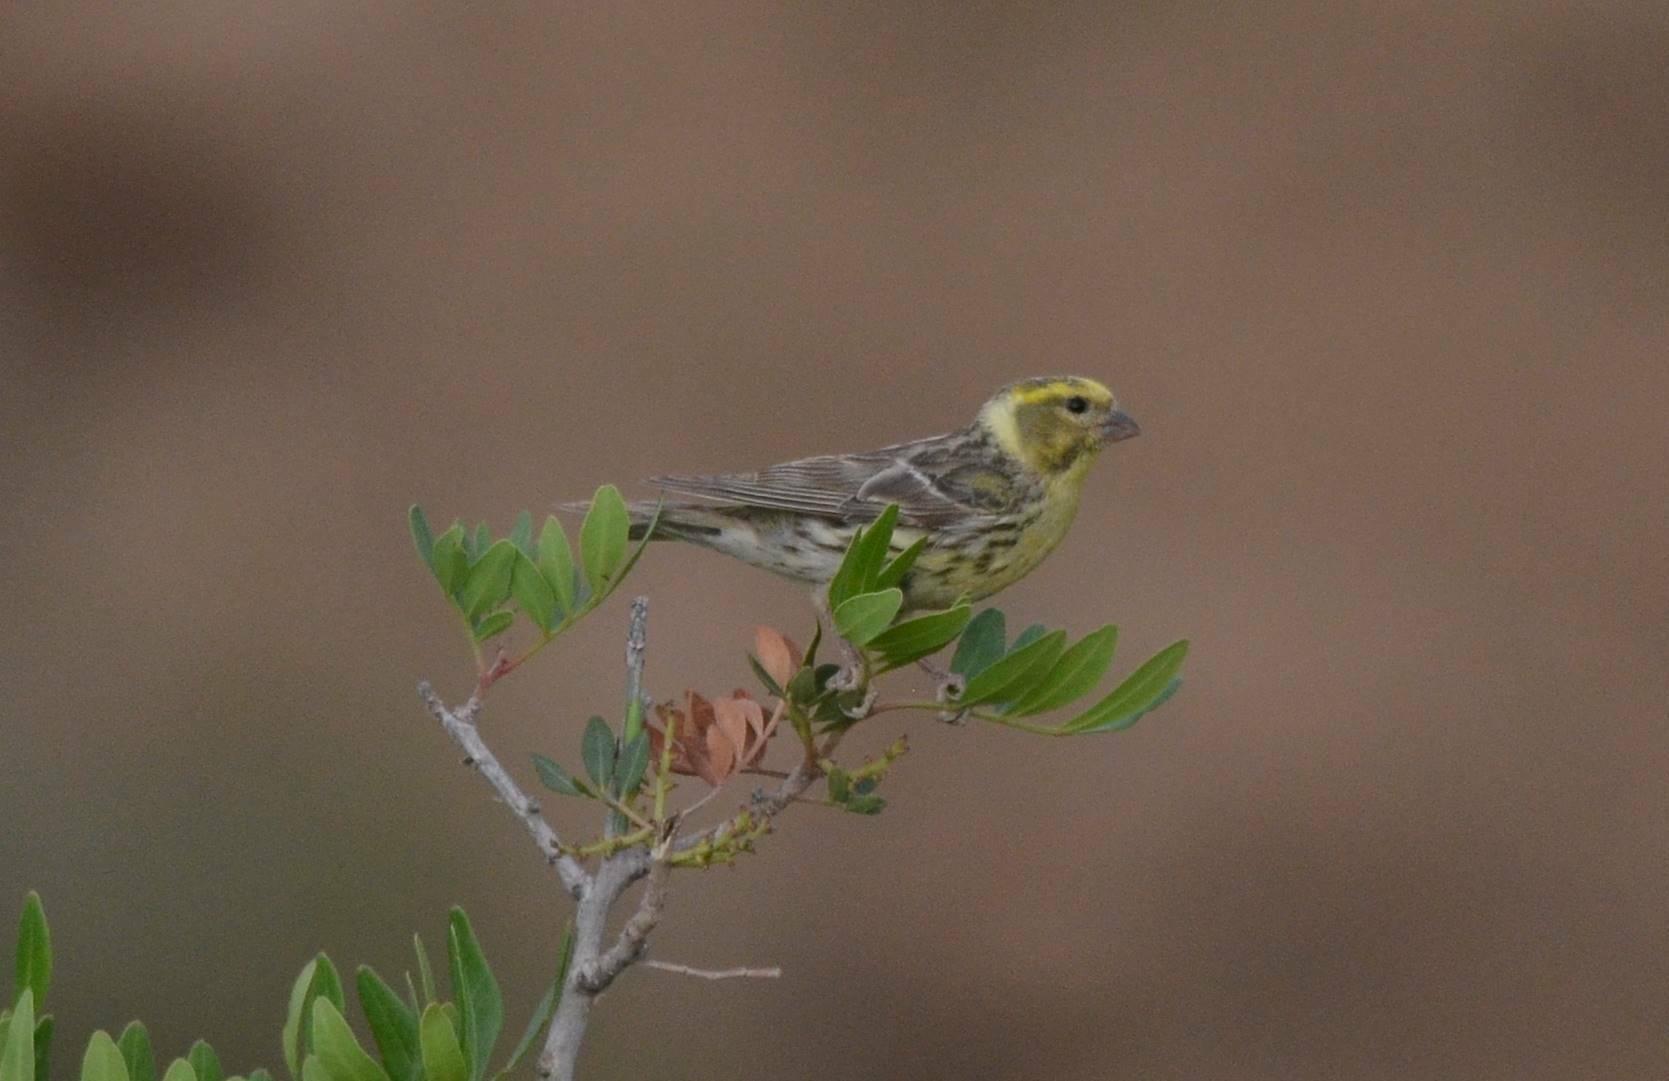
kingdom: Animalia
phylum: Chordata
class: Aves
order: Passeriformes
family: Fringillidae
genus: Serinus
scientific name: Serinus serinus
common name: European serin
